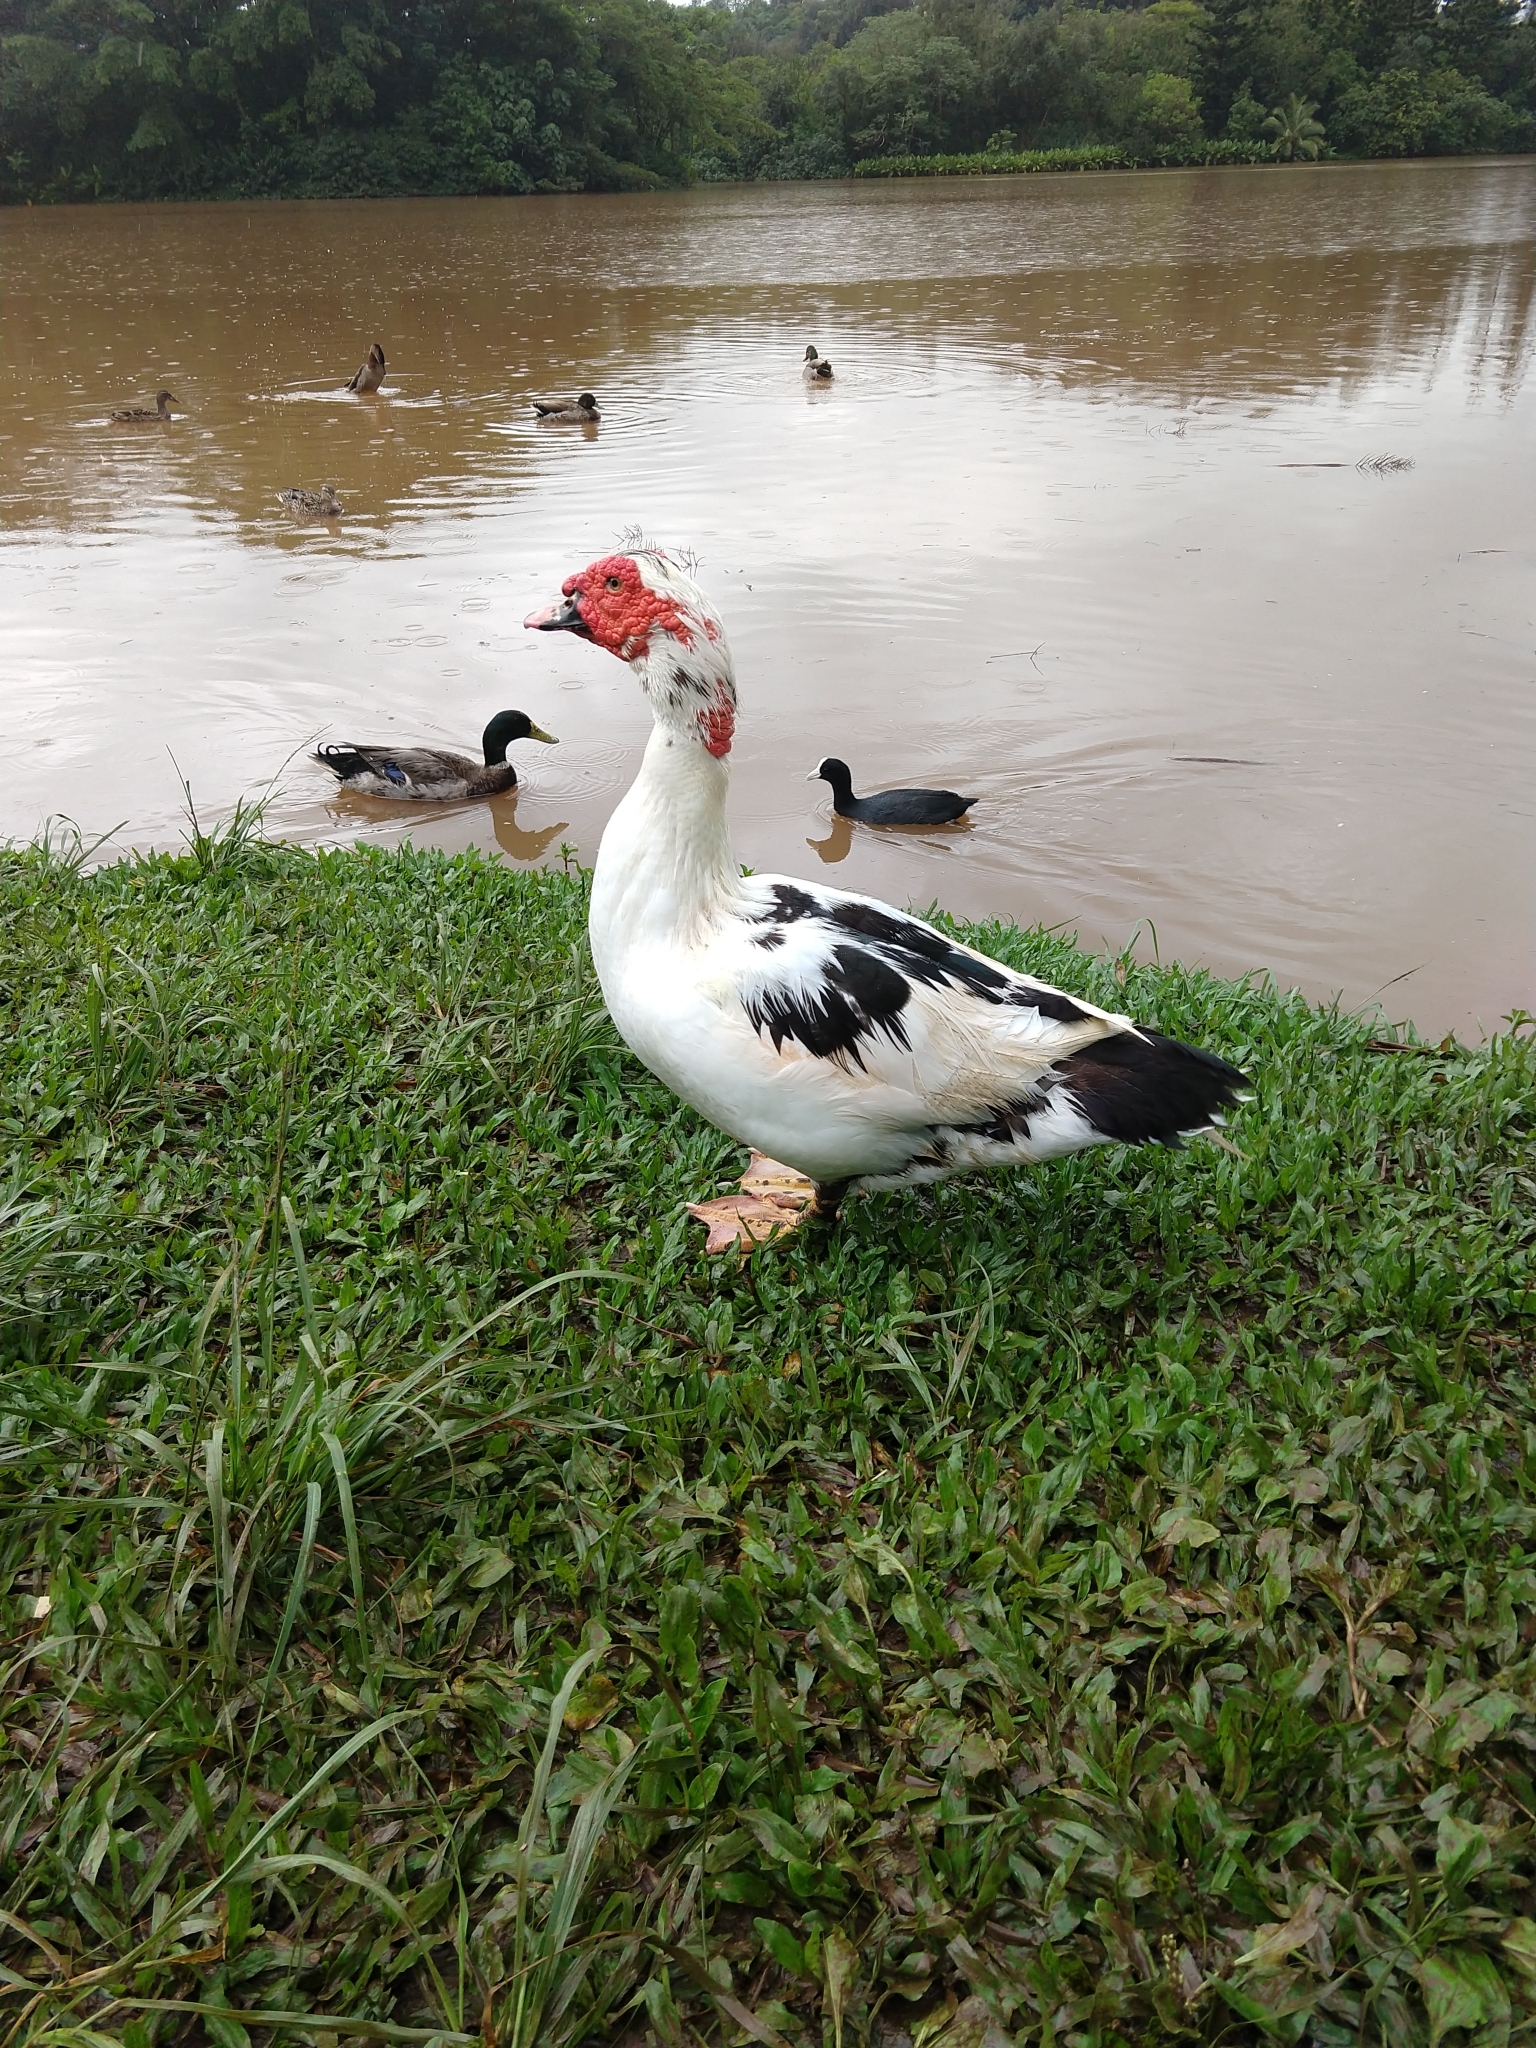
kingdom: Animalia
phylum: Chordata
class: Aves
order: Anseriformes
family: Anatidae
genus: Cairina
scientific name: Cairina moschata
